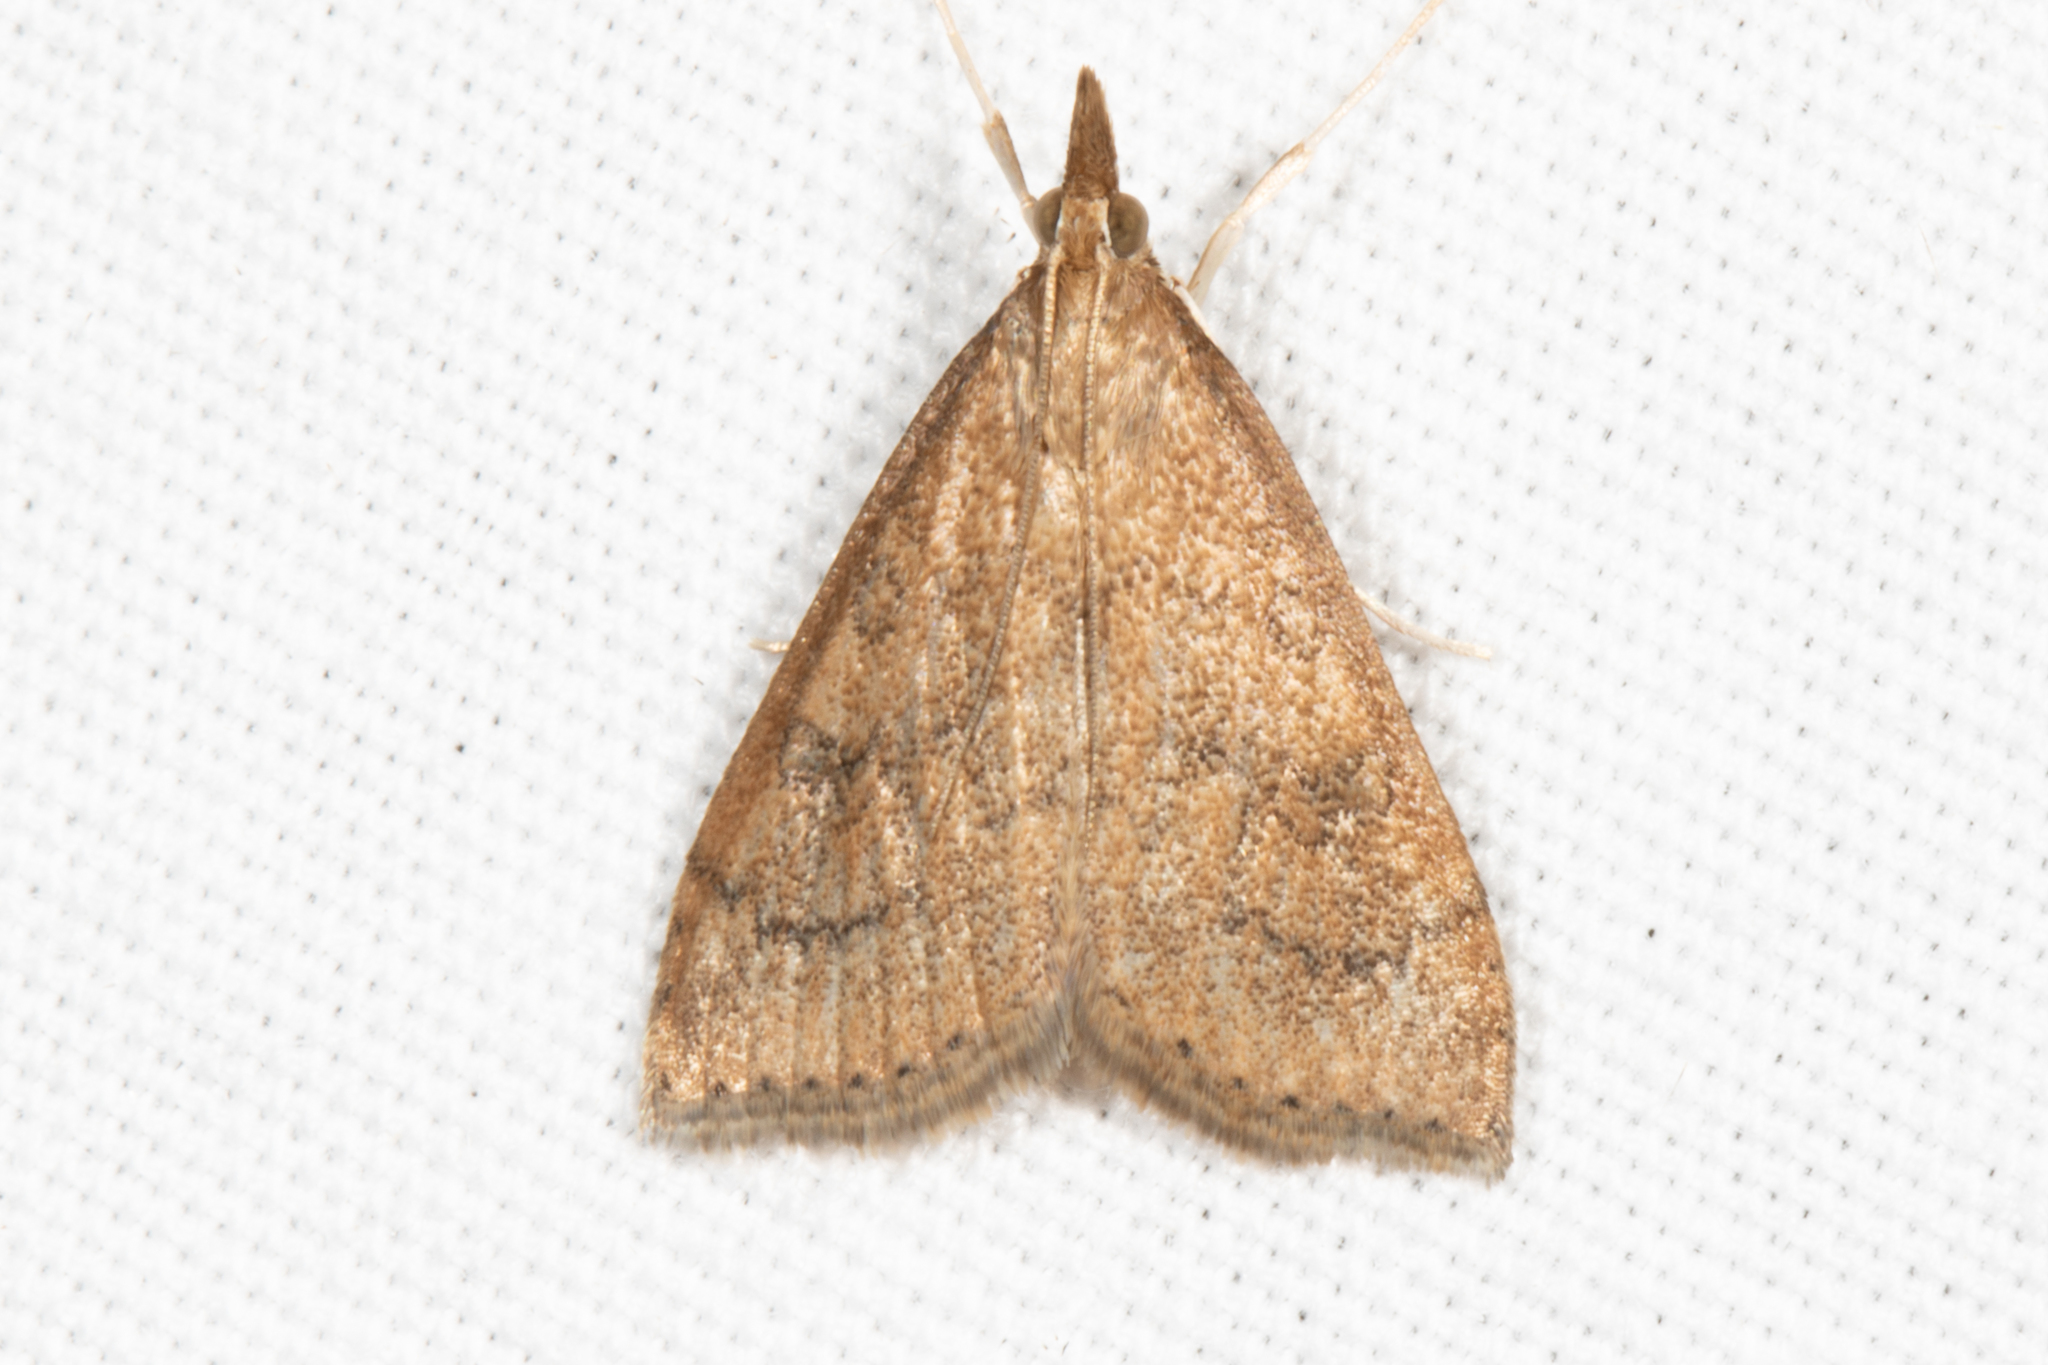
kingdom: Animalia
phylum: Arthropoda
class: Insecta
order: Lepidoptera
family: Crambidae
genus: Udea
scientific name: Udea rubigalis
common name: Celery leaftier moth
